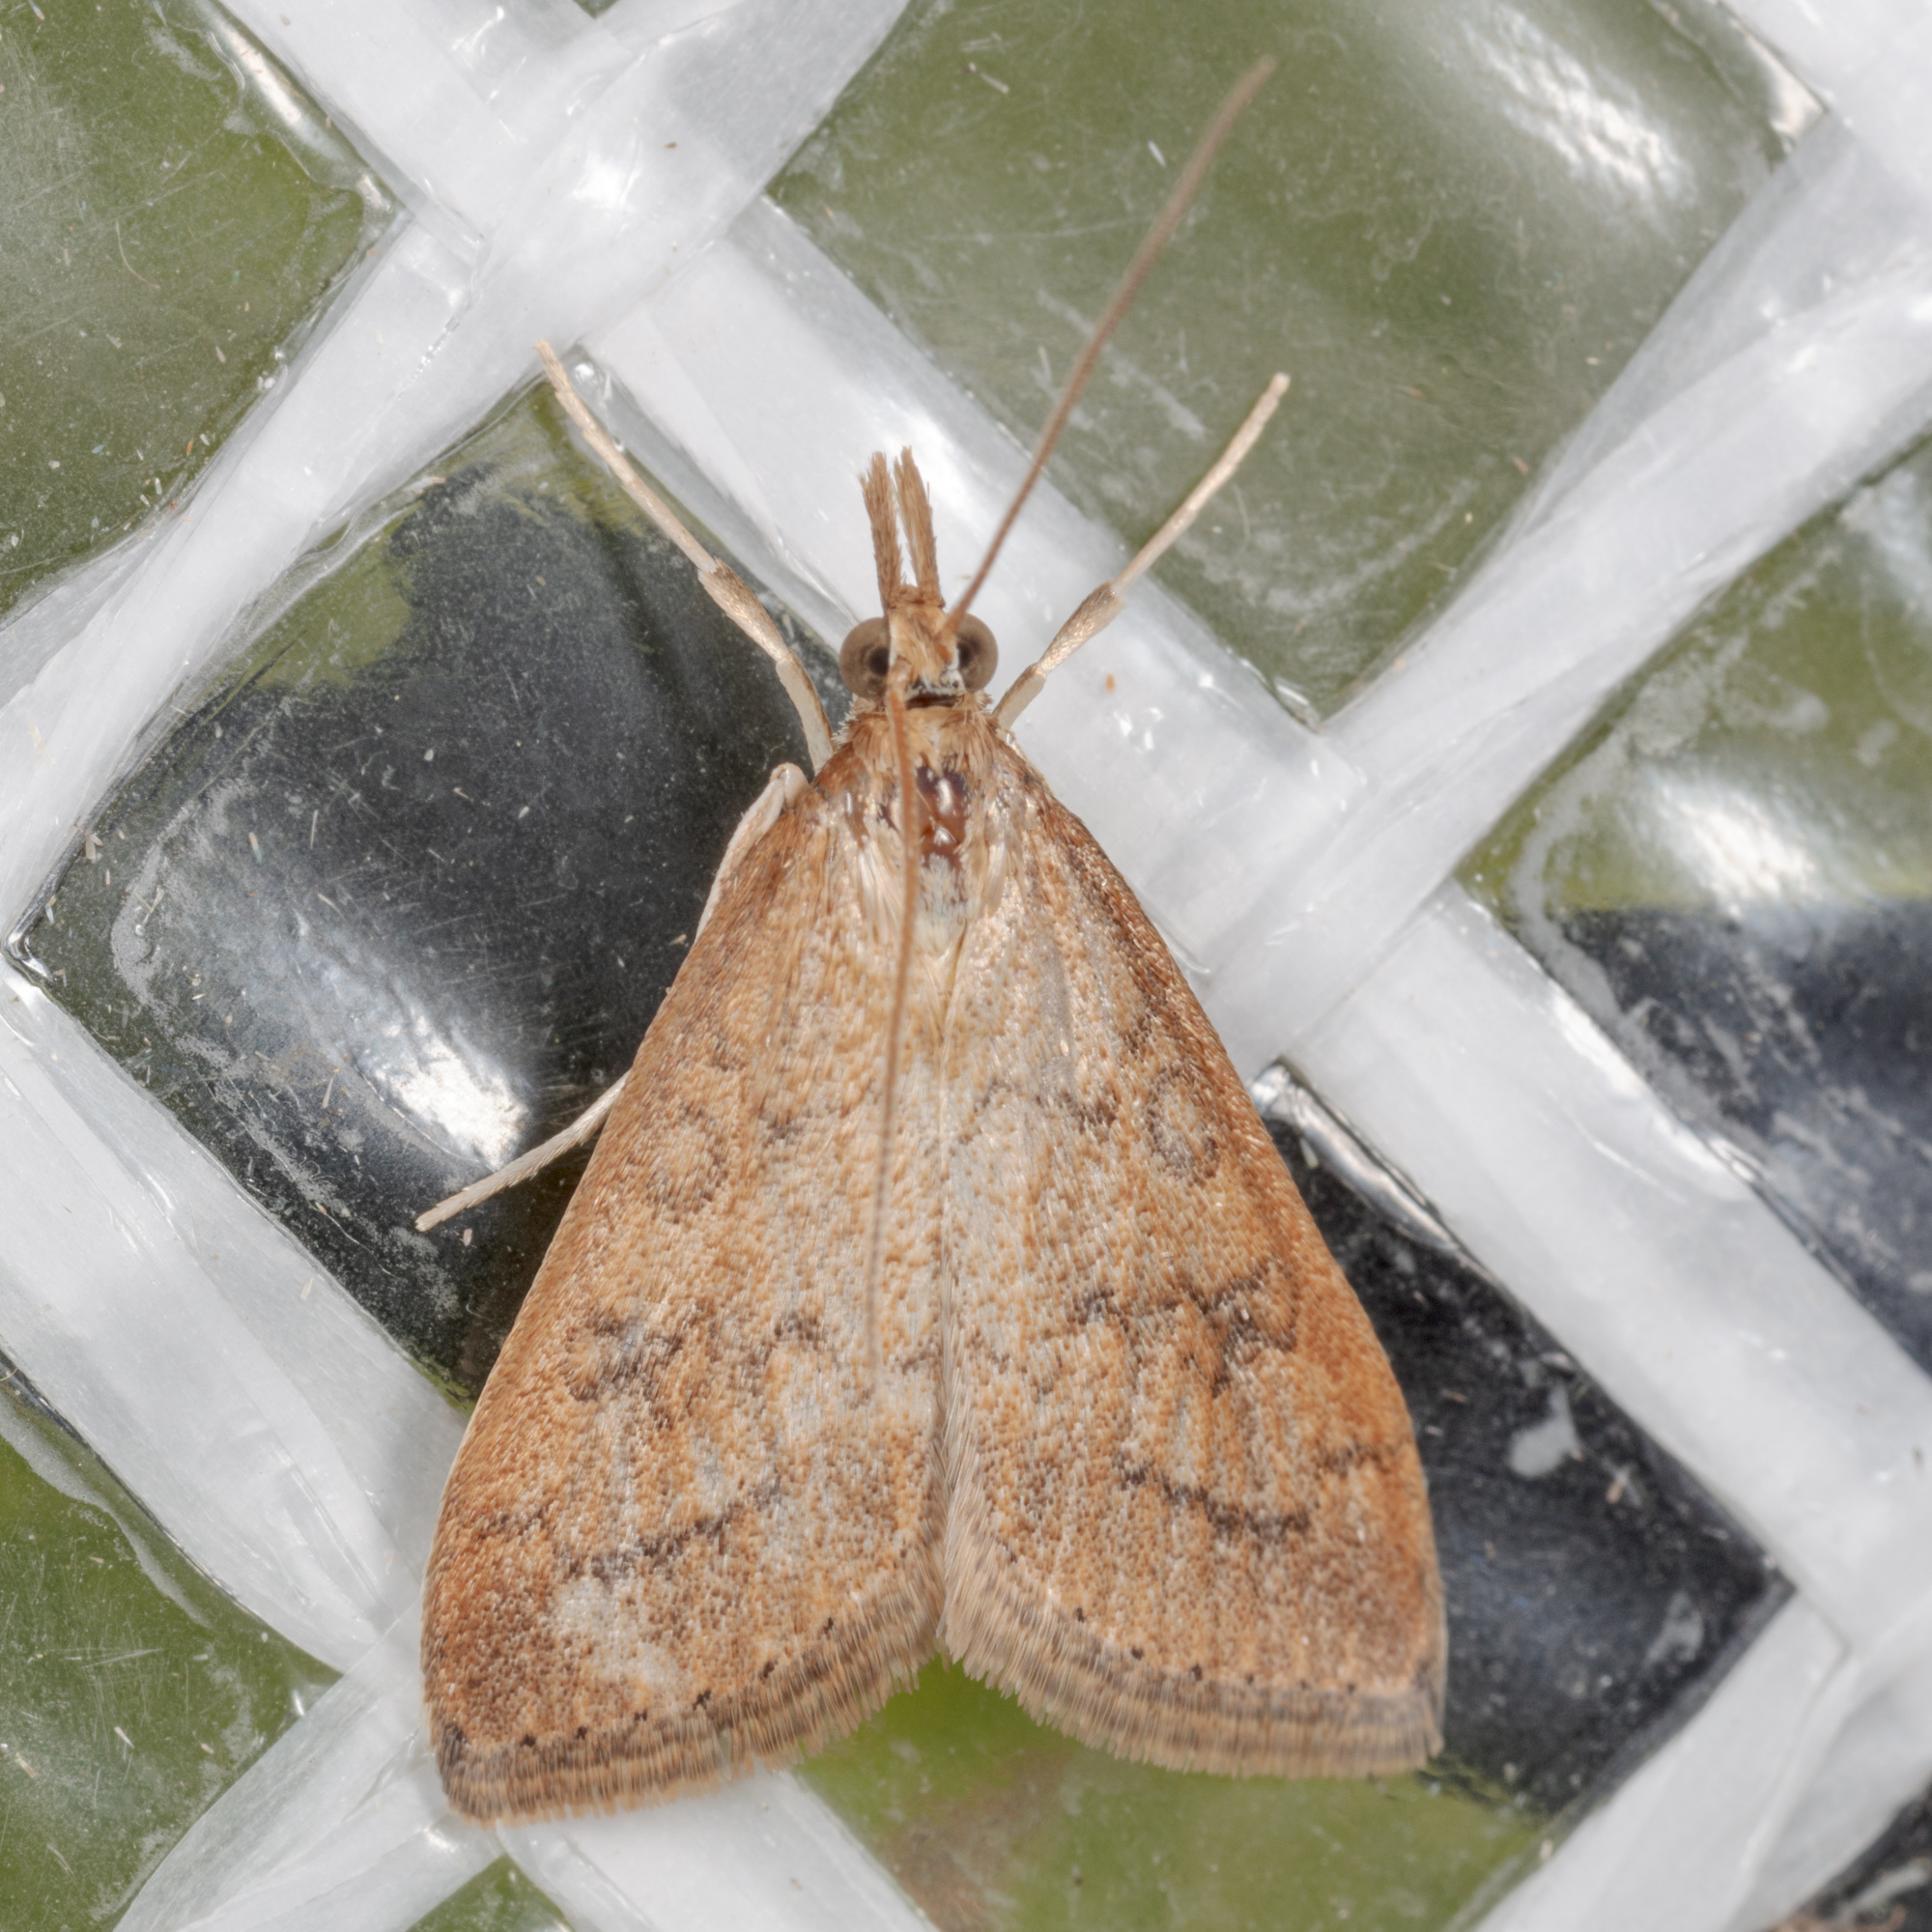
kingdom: Animalia
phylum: Arthropoda
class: Insecta
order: Lepidoptera
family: Crambidae
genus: Udea
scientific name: Udea rubigalis
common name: Celery leaftier moth
